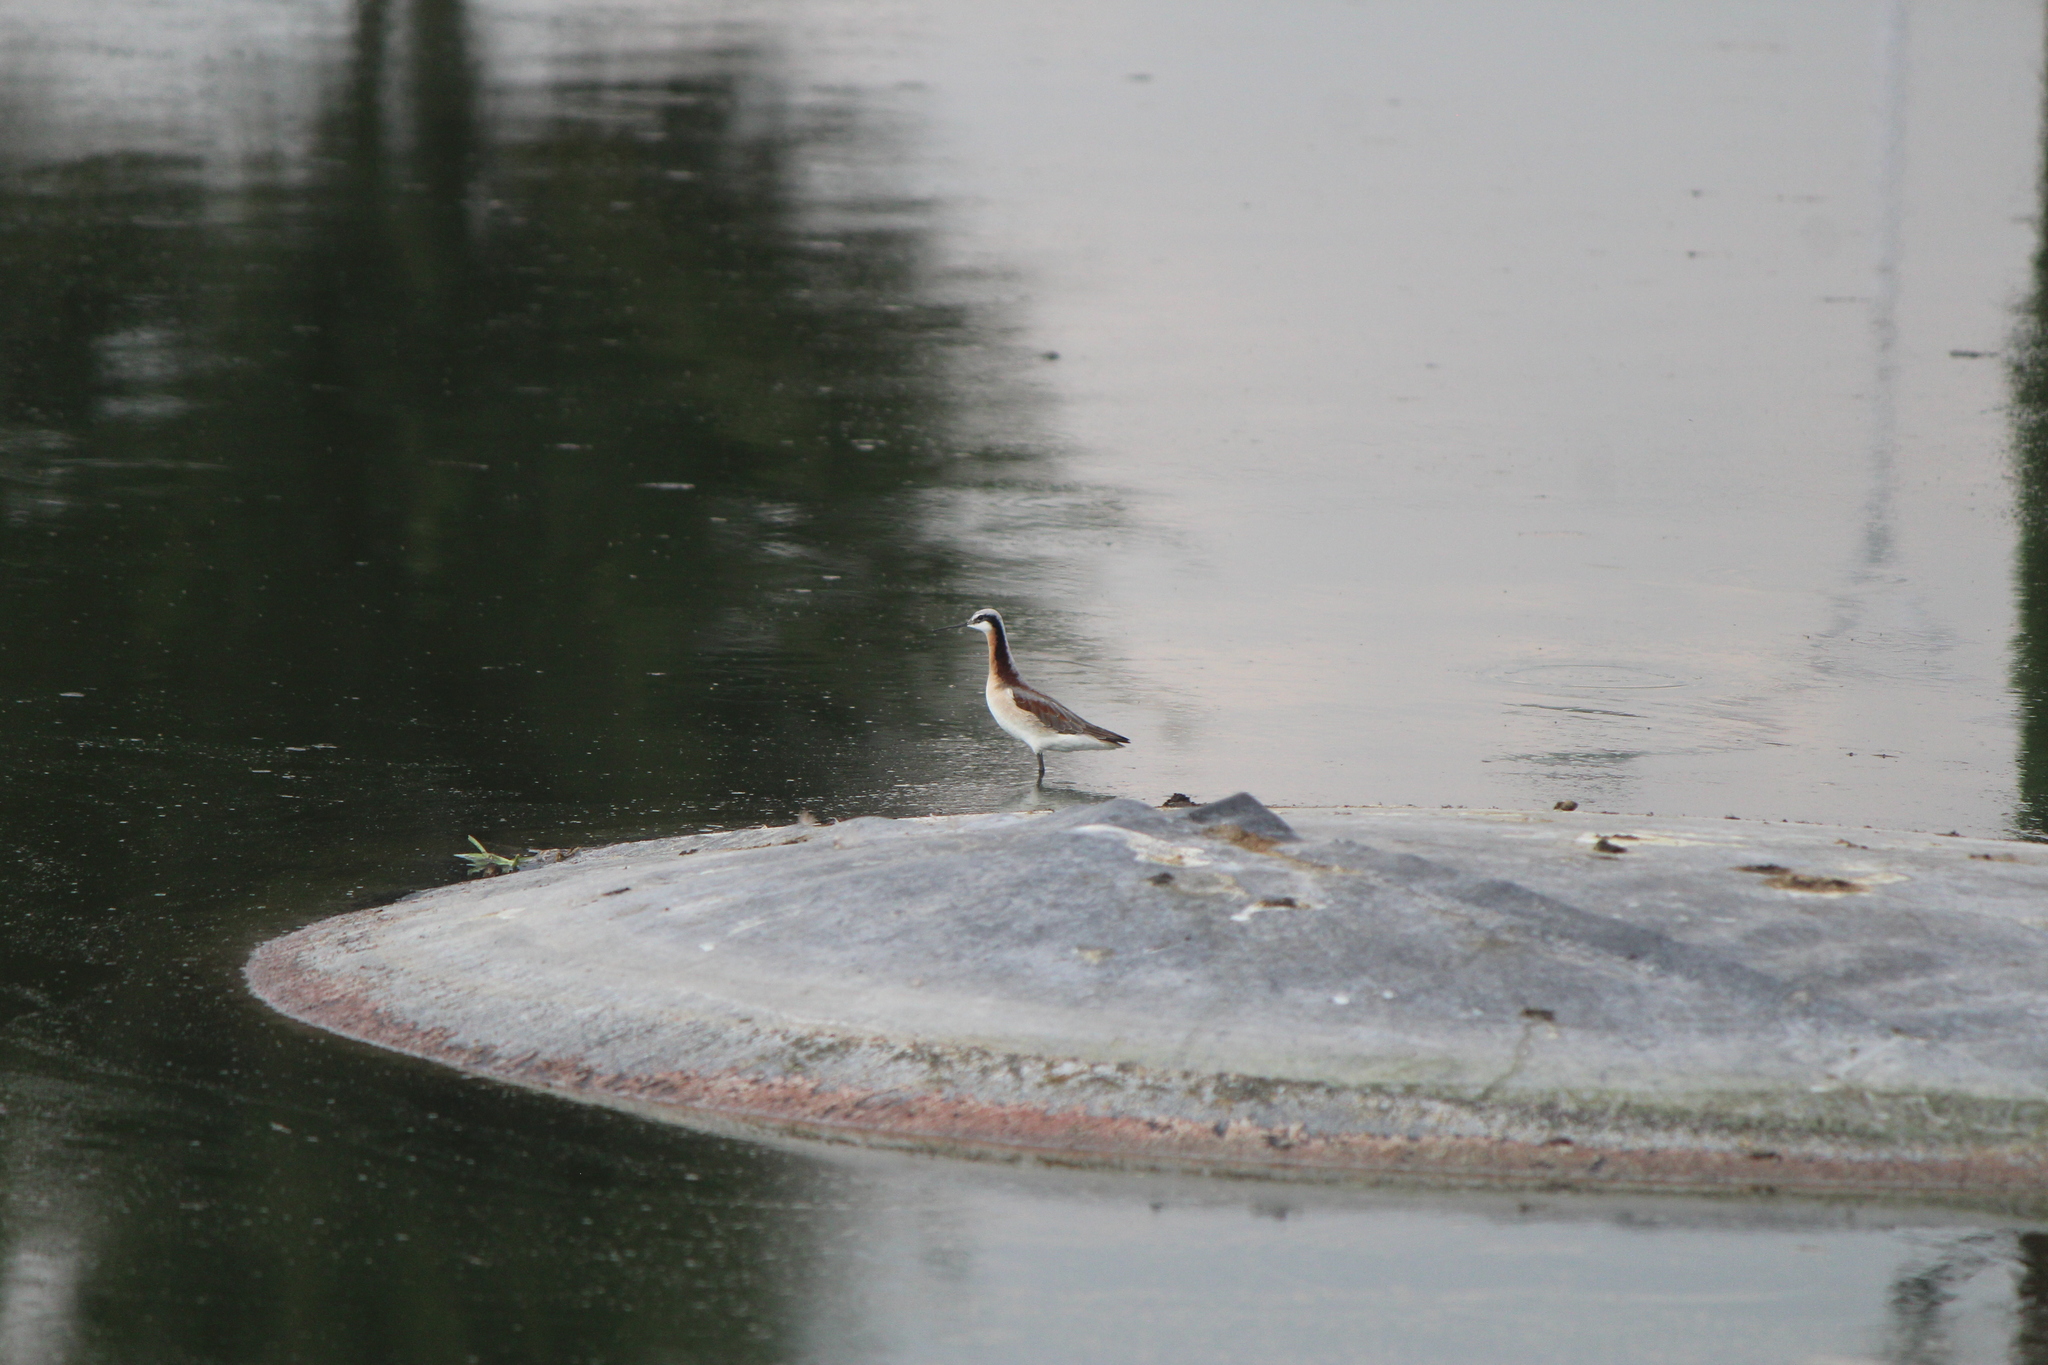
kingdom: Animalia
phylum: Chordata
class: Aves
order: Charadriiformes
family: Scolopacidae
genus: Phalaropus
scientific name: Phalaropus tricolor
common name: Wilson's phalarope
